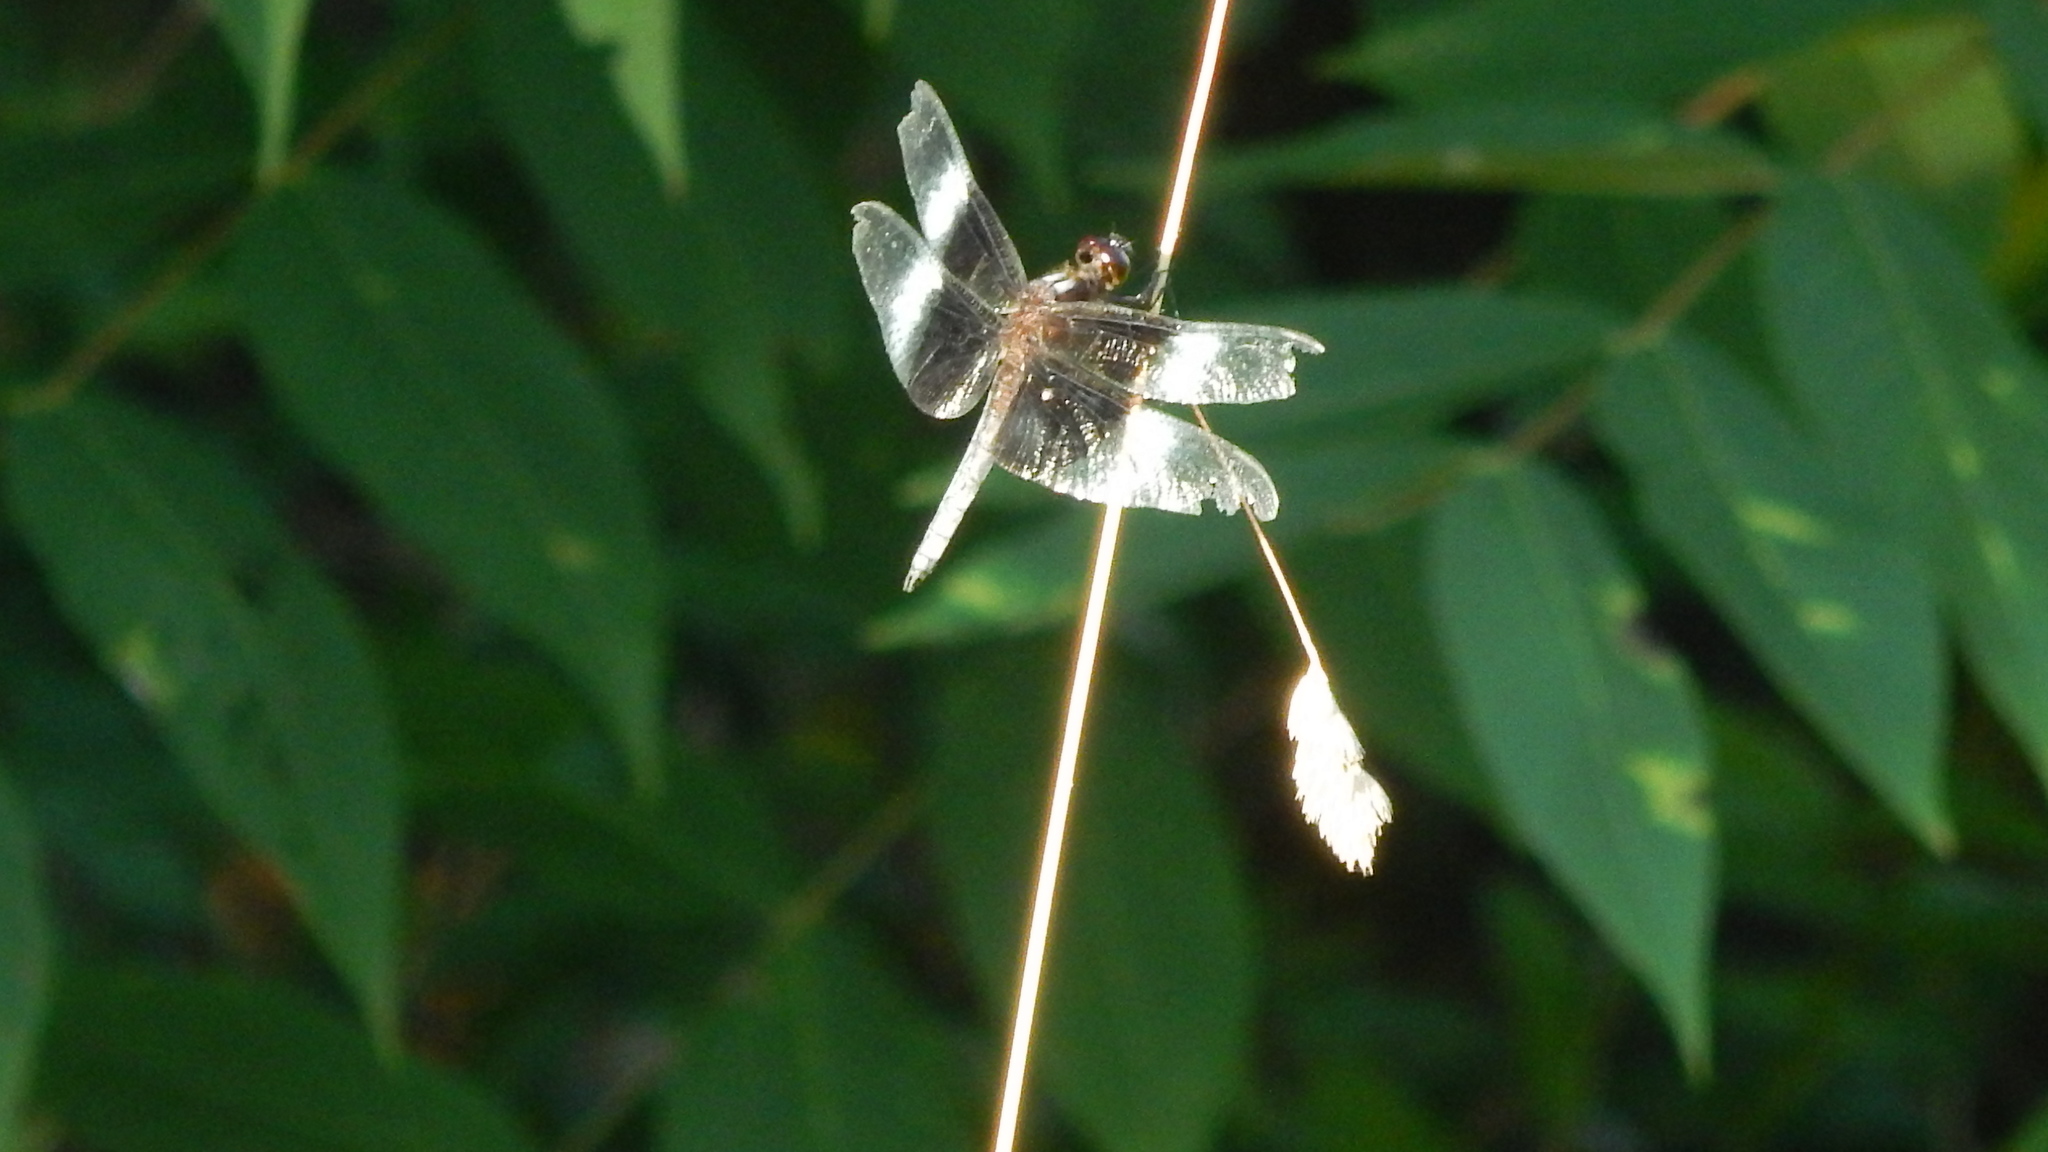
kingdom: Animalia
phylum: Arthropoda
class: Insecta
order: Odonata
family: Libellulidae
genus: Libellula
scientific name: Libellula luctuosa
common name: Widow skimmer
